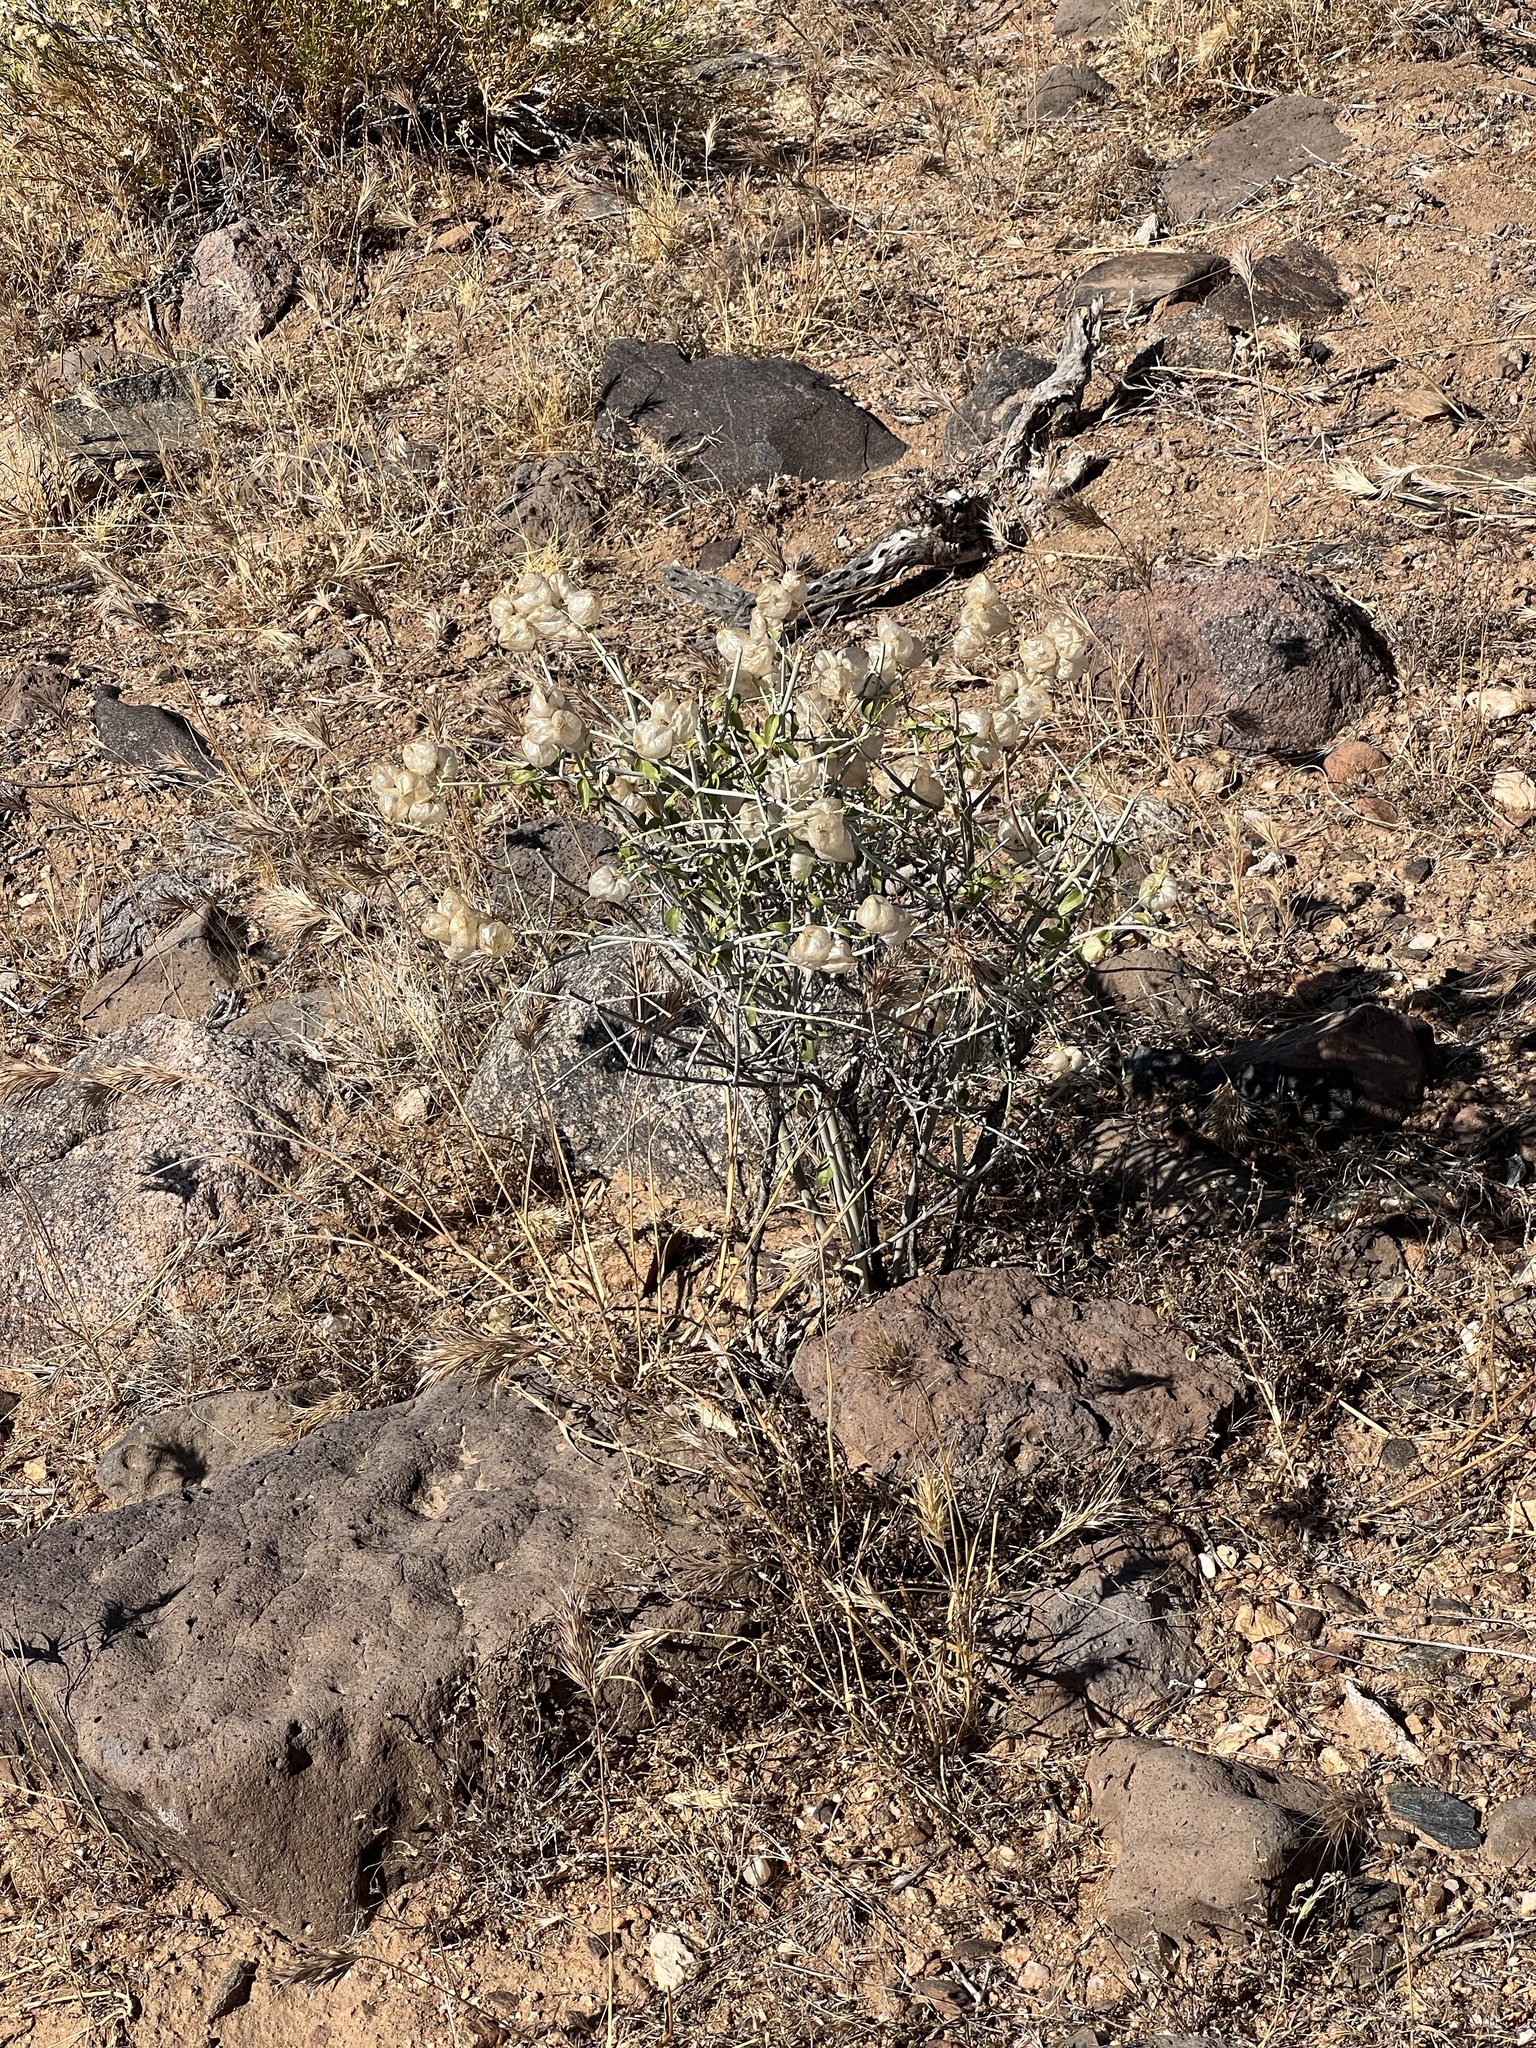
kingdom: Plantae
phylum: Tracheophyta
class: Magnoliopsida
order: Lamiales
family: Lamiaceae
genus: Scutellaria
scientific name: Scutellaria mexicana
